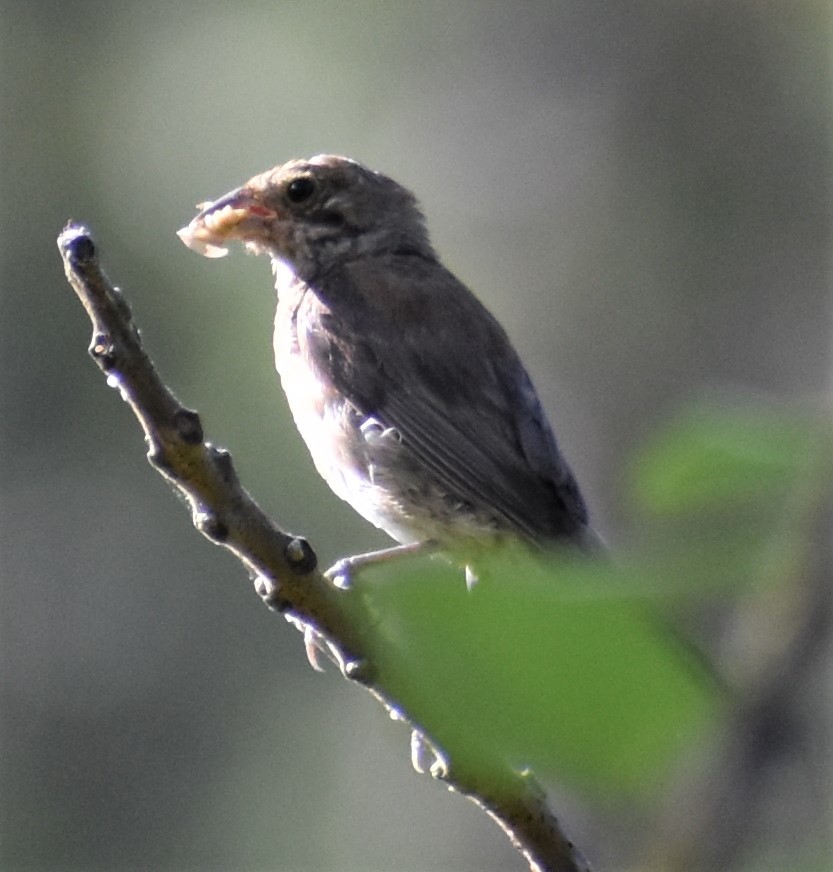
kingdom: Animalia
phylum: Chordata
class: Aves
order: Passeriformes
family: Cardinalidae
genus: Passerina
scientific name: Passerina cyanea
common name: Indigo bunting
